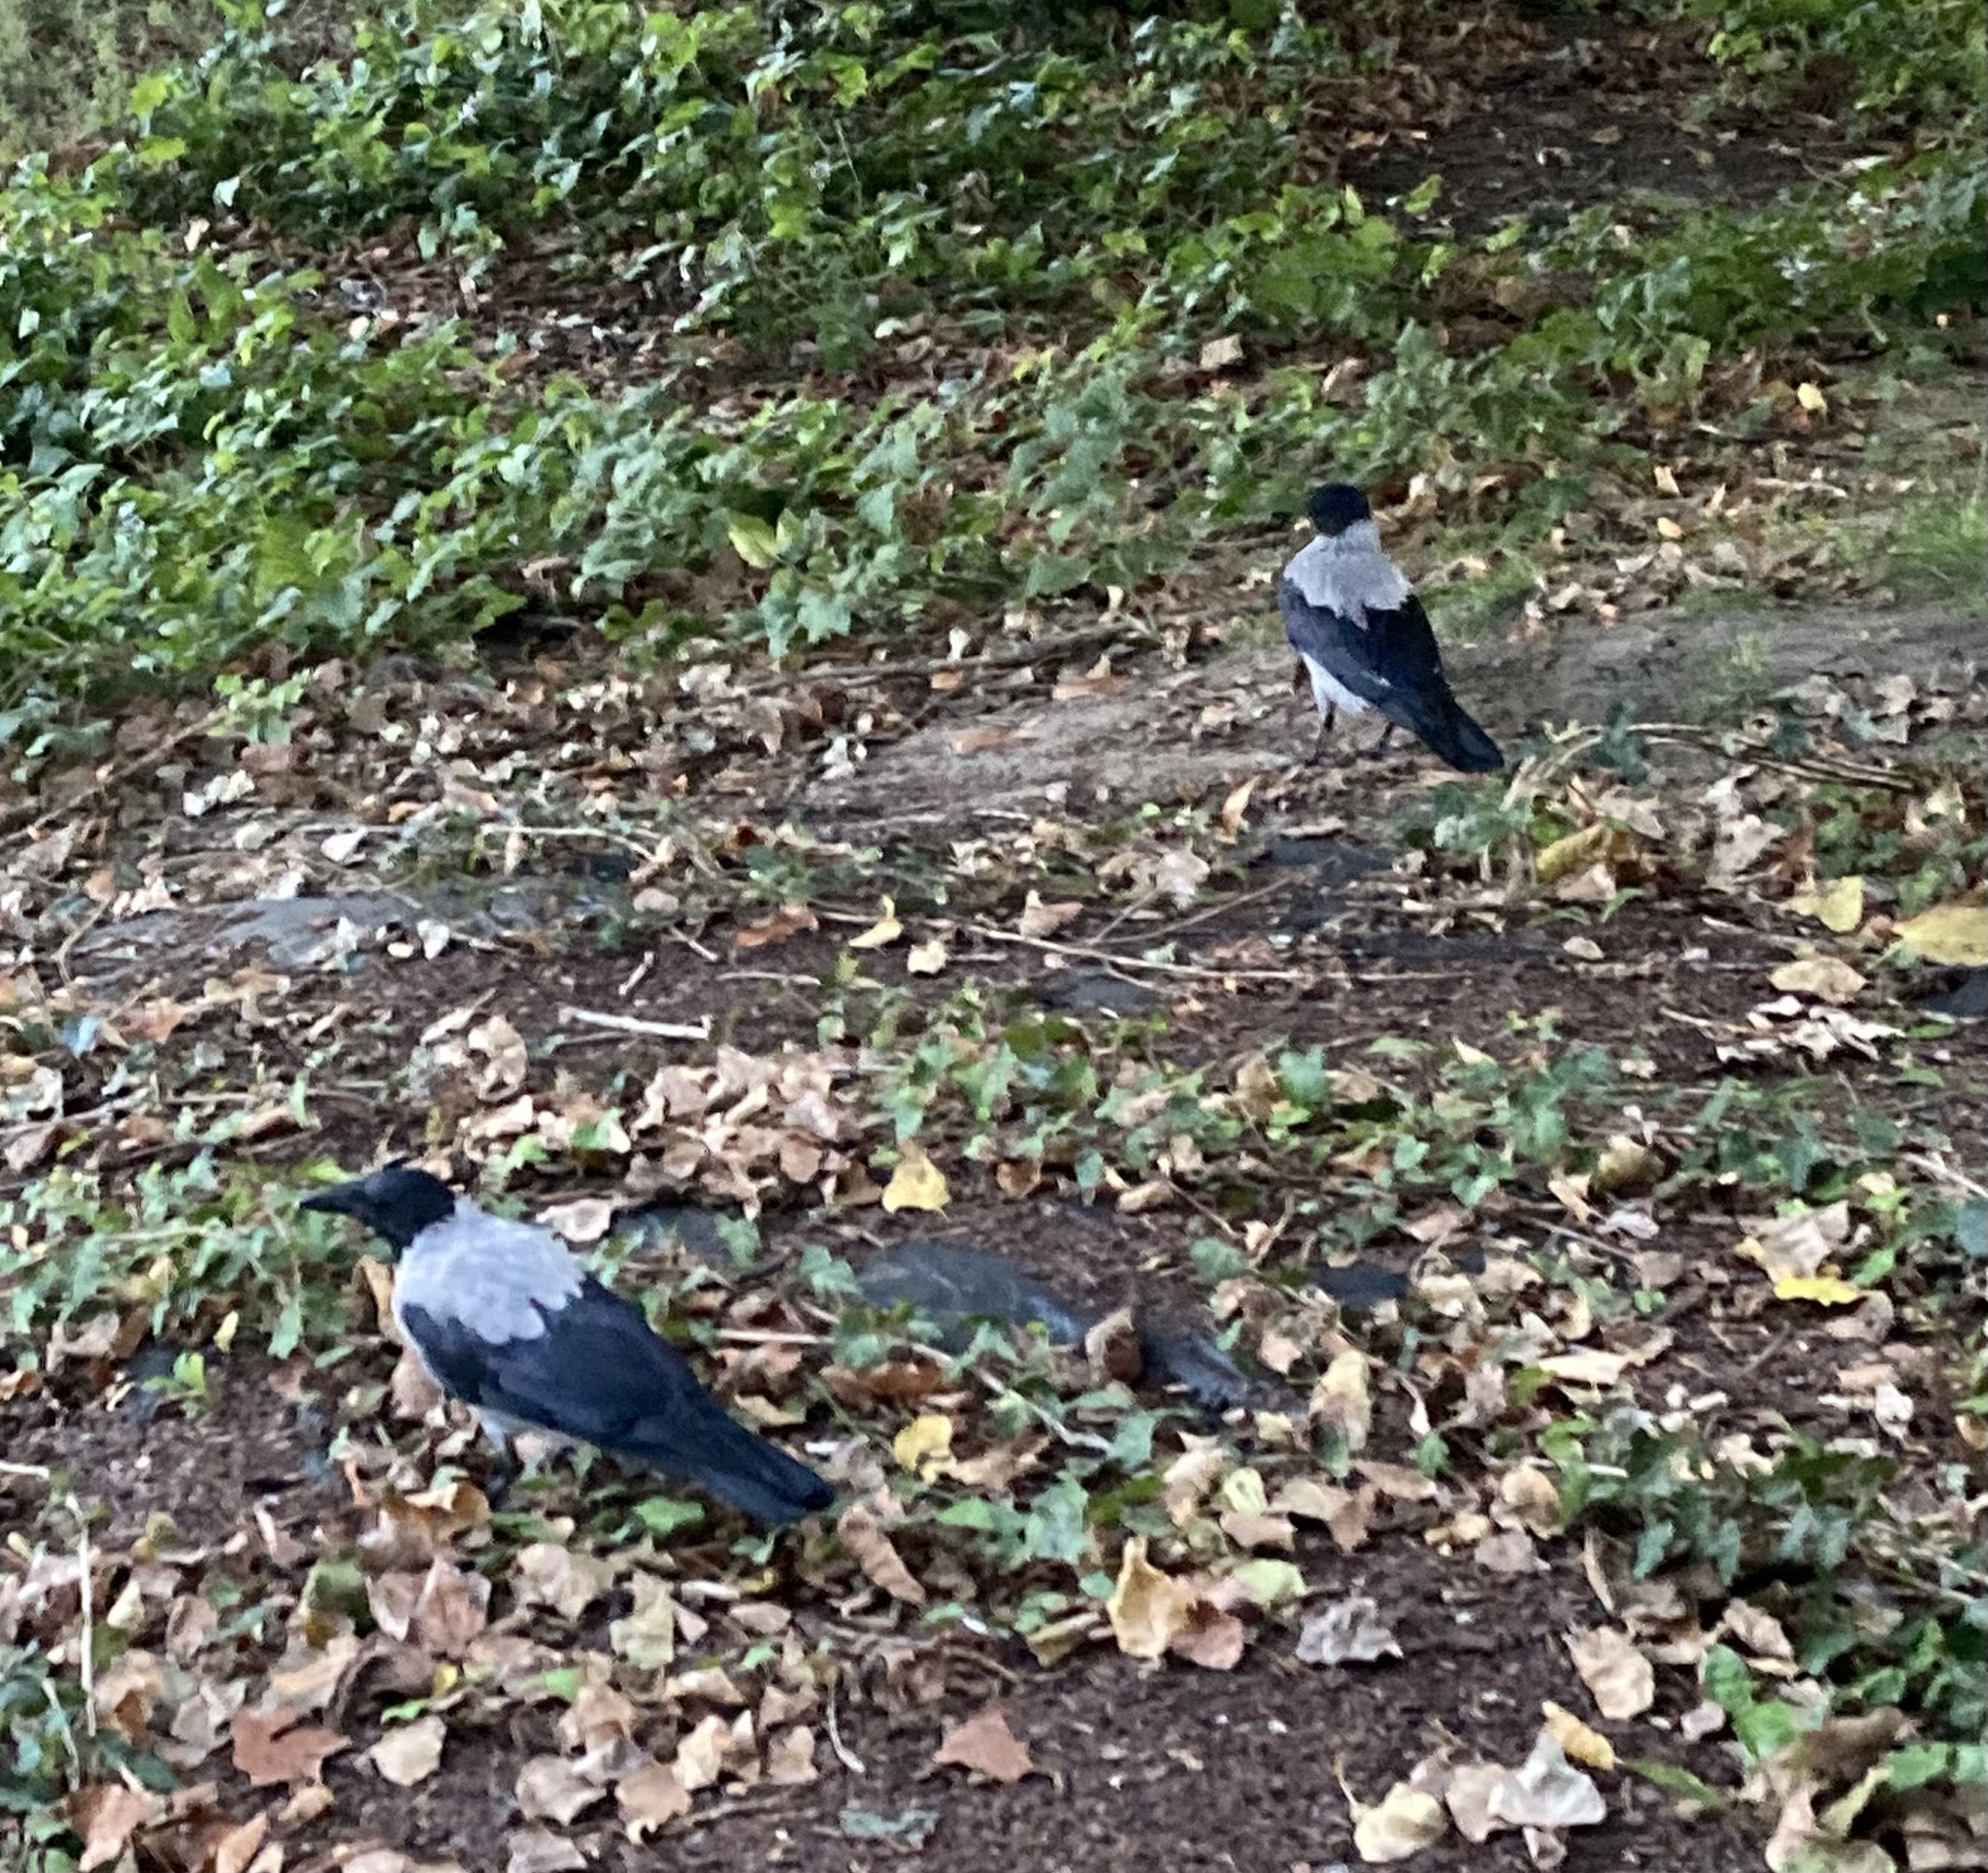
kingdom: Animalia
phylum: Chordata
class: Aves
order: Passeriformes
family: Corvidae
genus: Corvus
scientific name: Corvus cornix
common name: Hooded crow
